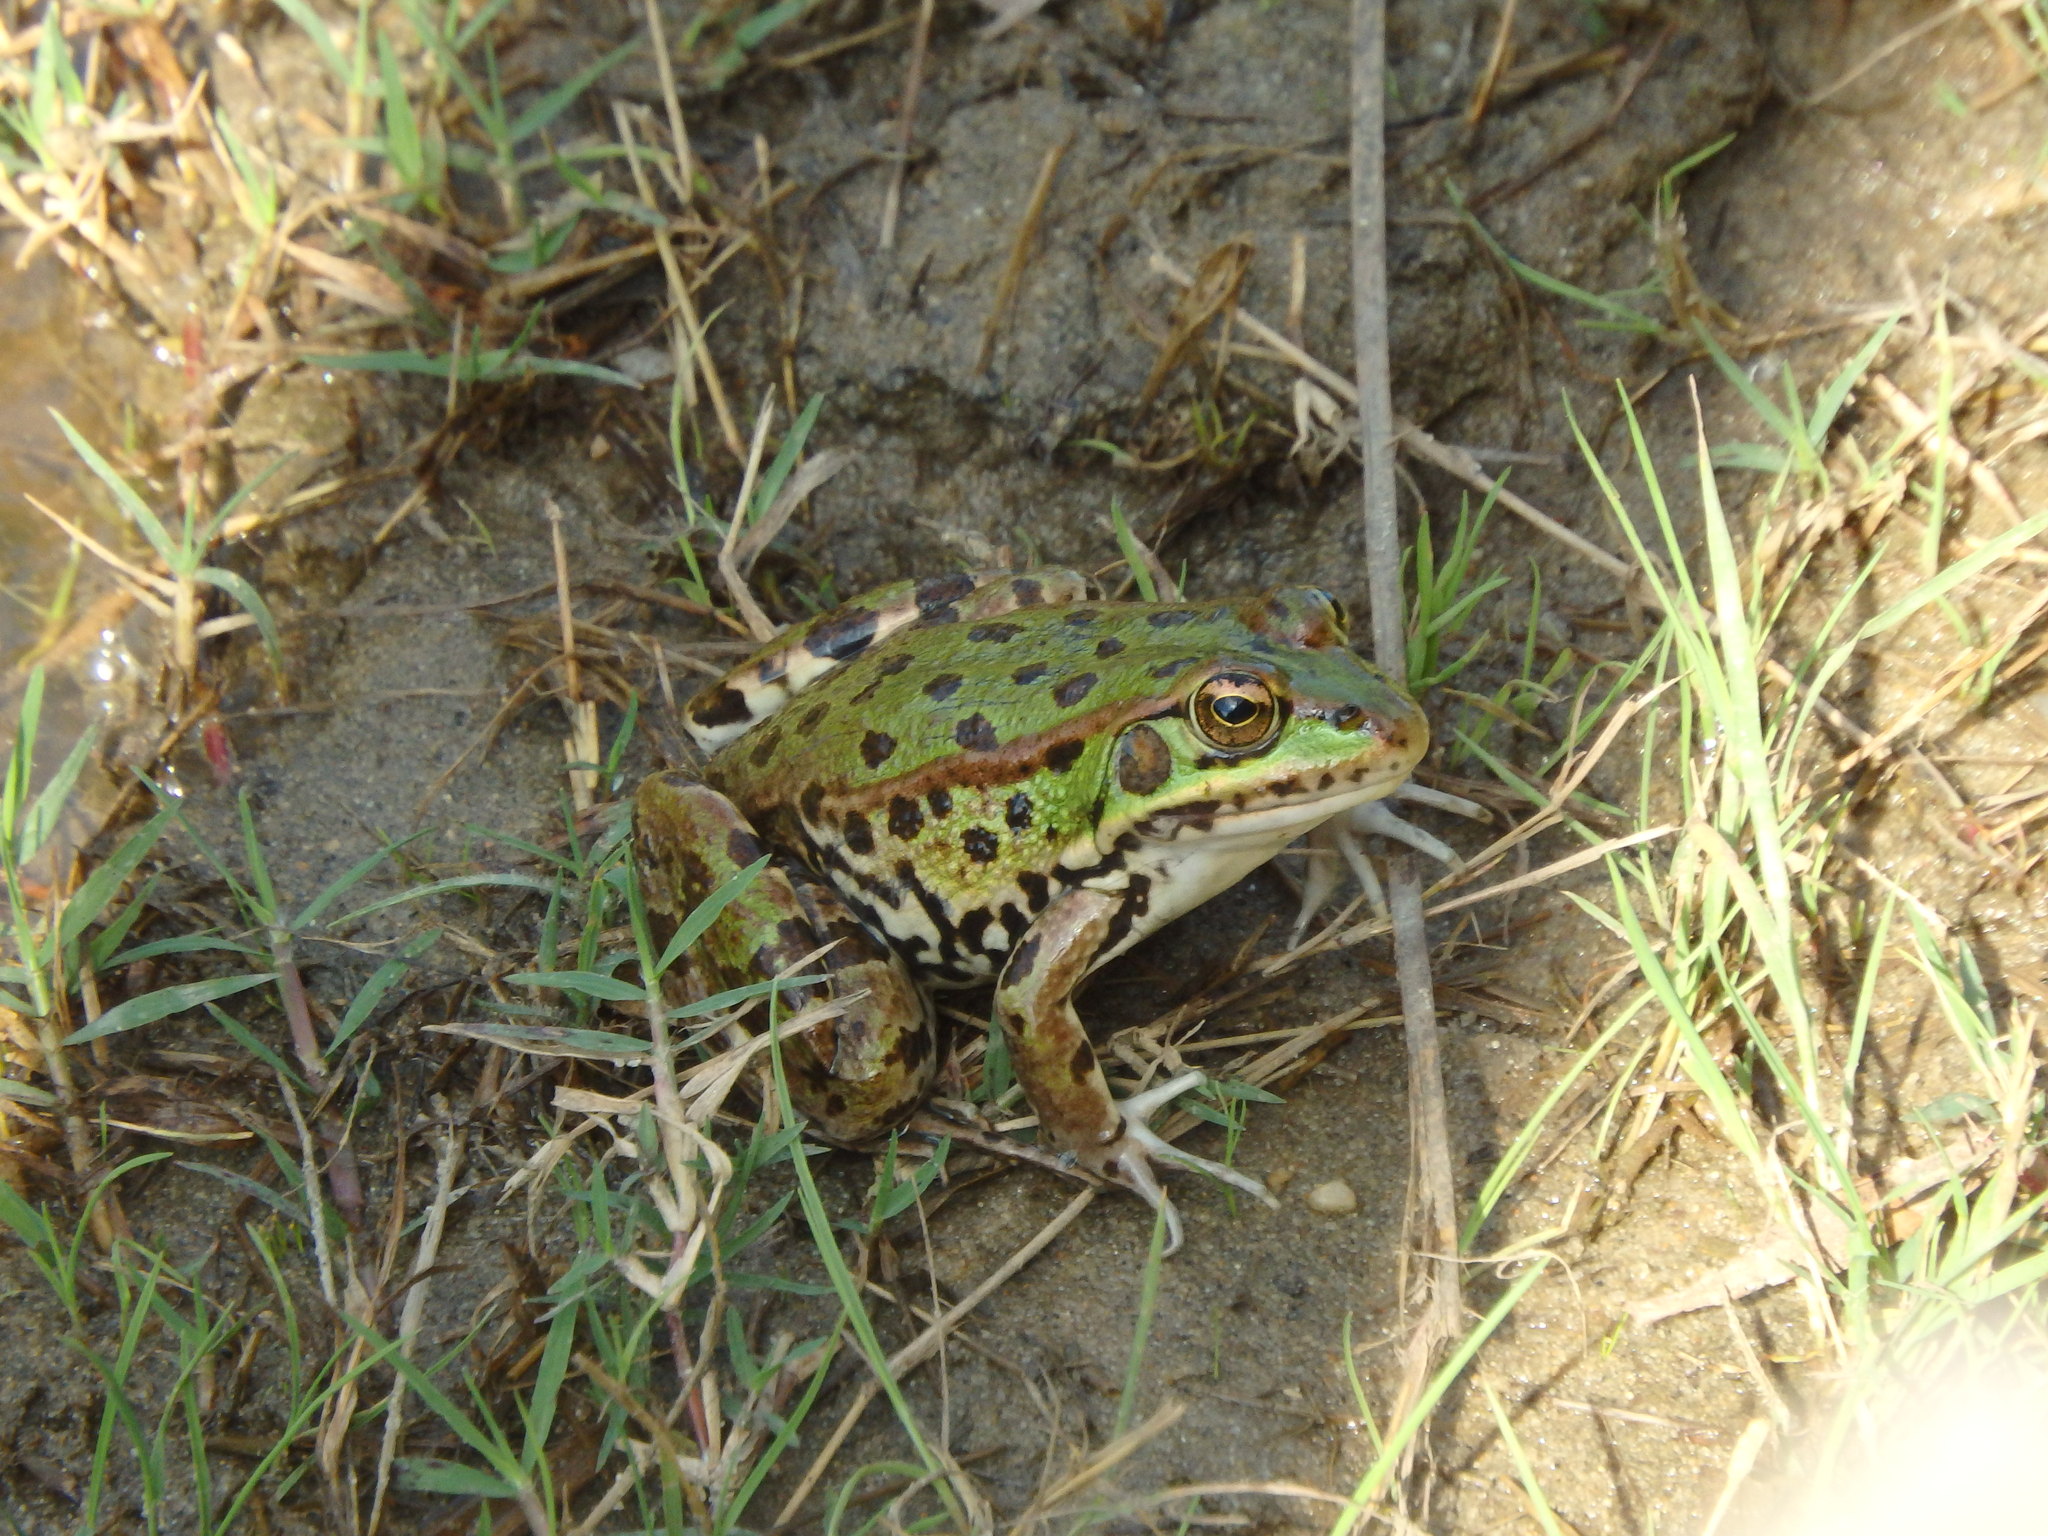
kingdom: Animalia
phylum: Chordata
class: Amphibia
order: Anura
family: Ranidae
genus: Pelophylax
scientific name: Pelophylax perezi
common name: Perez's frog
